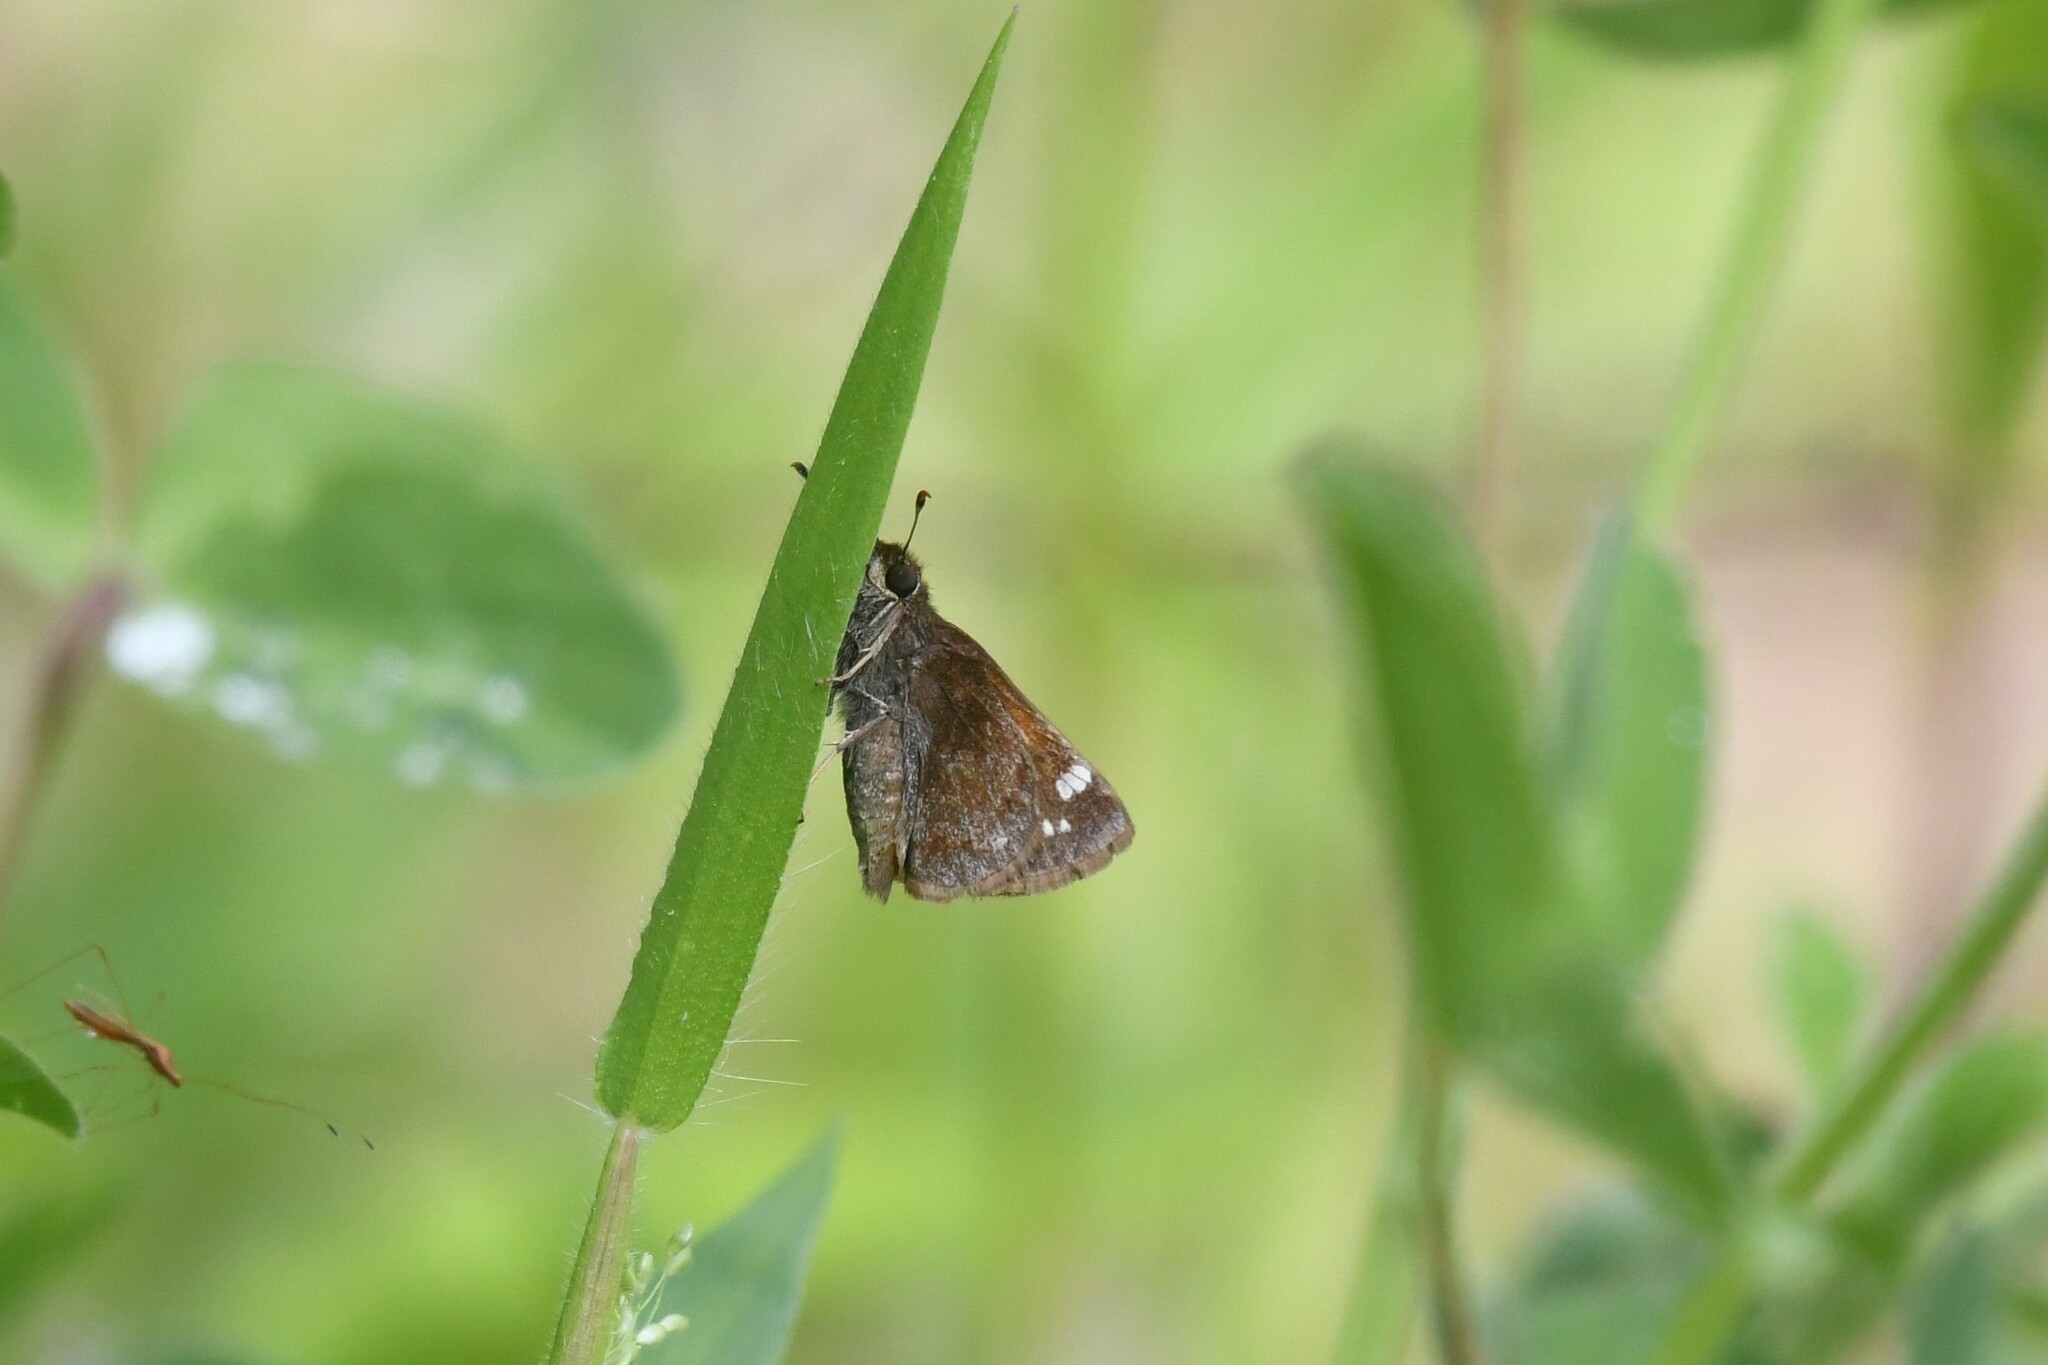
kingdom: Animalia
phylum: Arthropoda
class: Insecta
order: Lepidoptera
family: Hesperiidae
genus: Lon
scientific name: Lon hobomok
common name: Hobomok skipper
